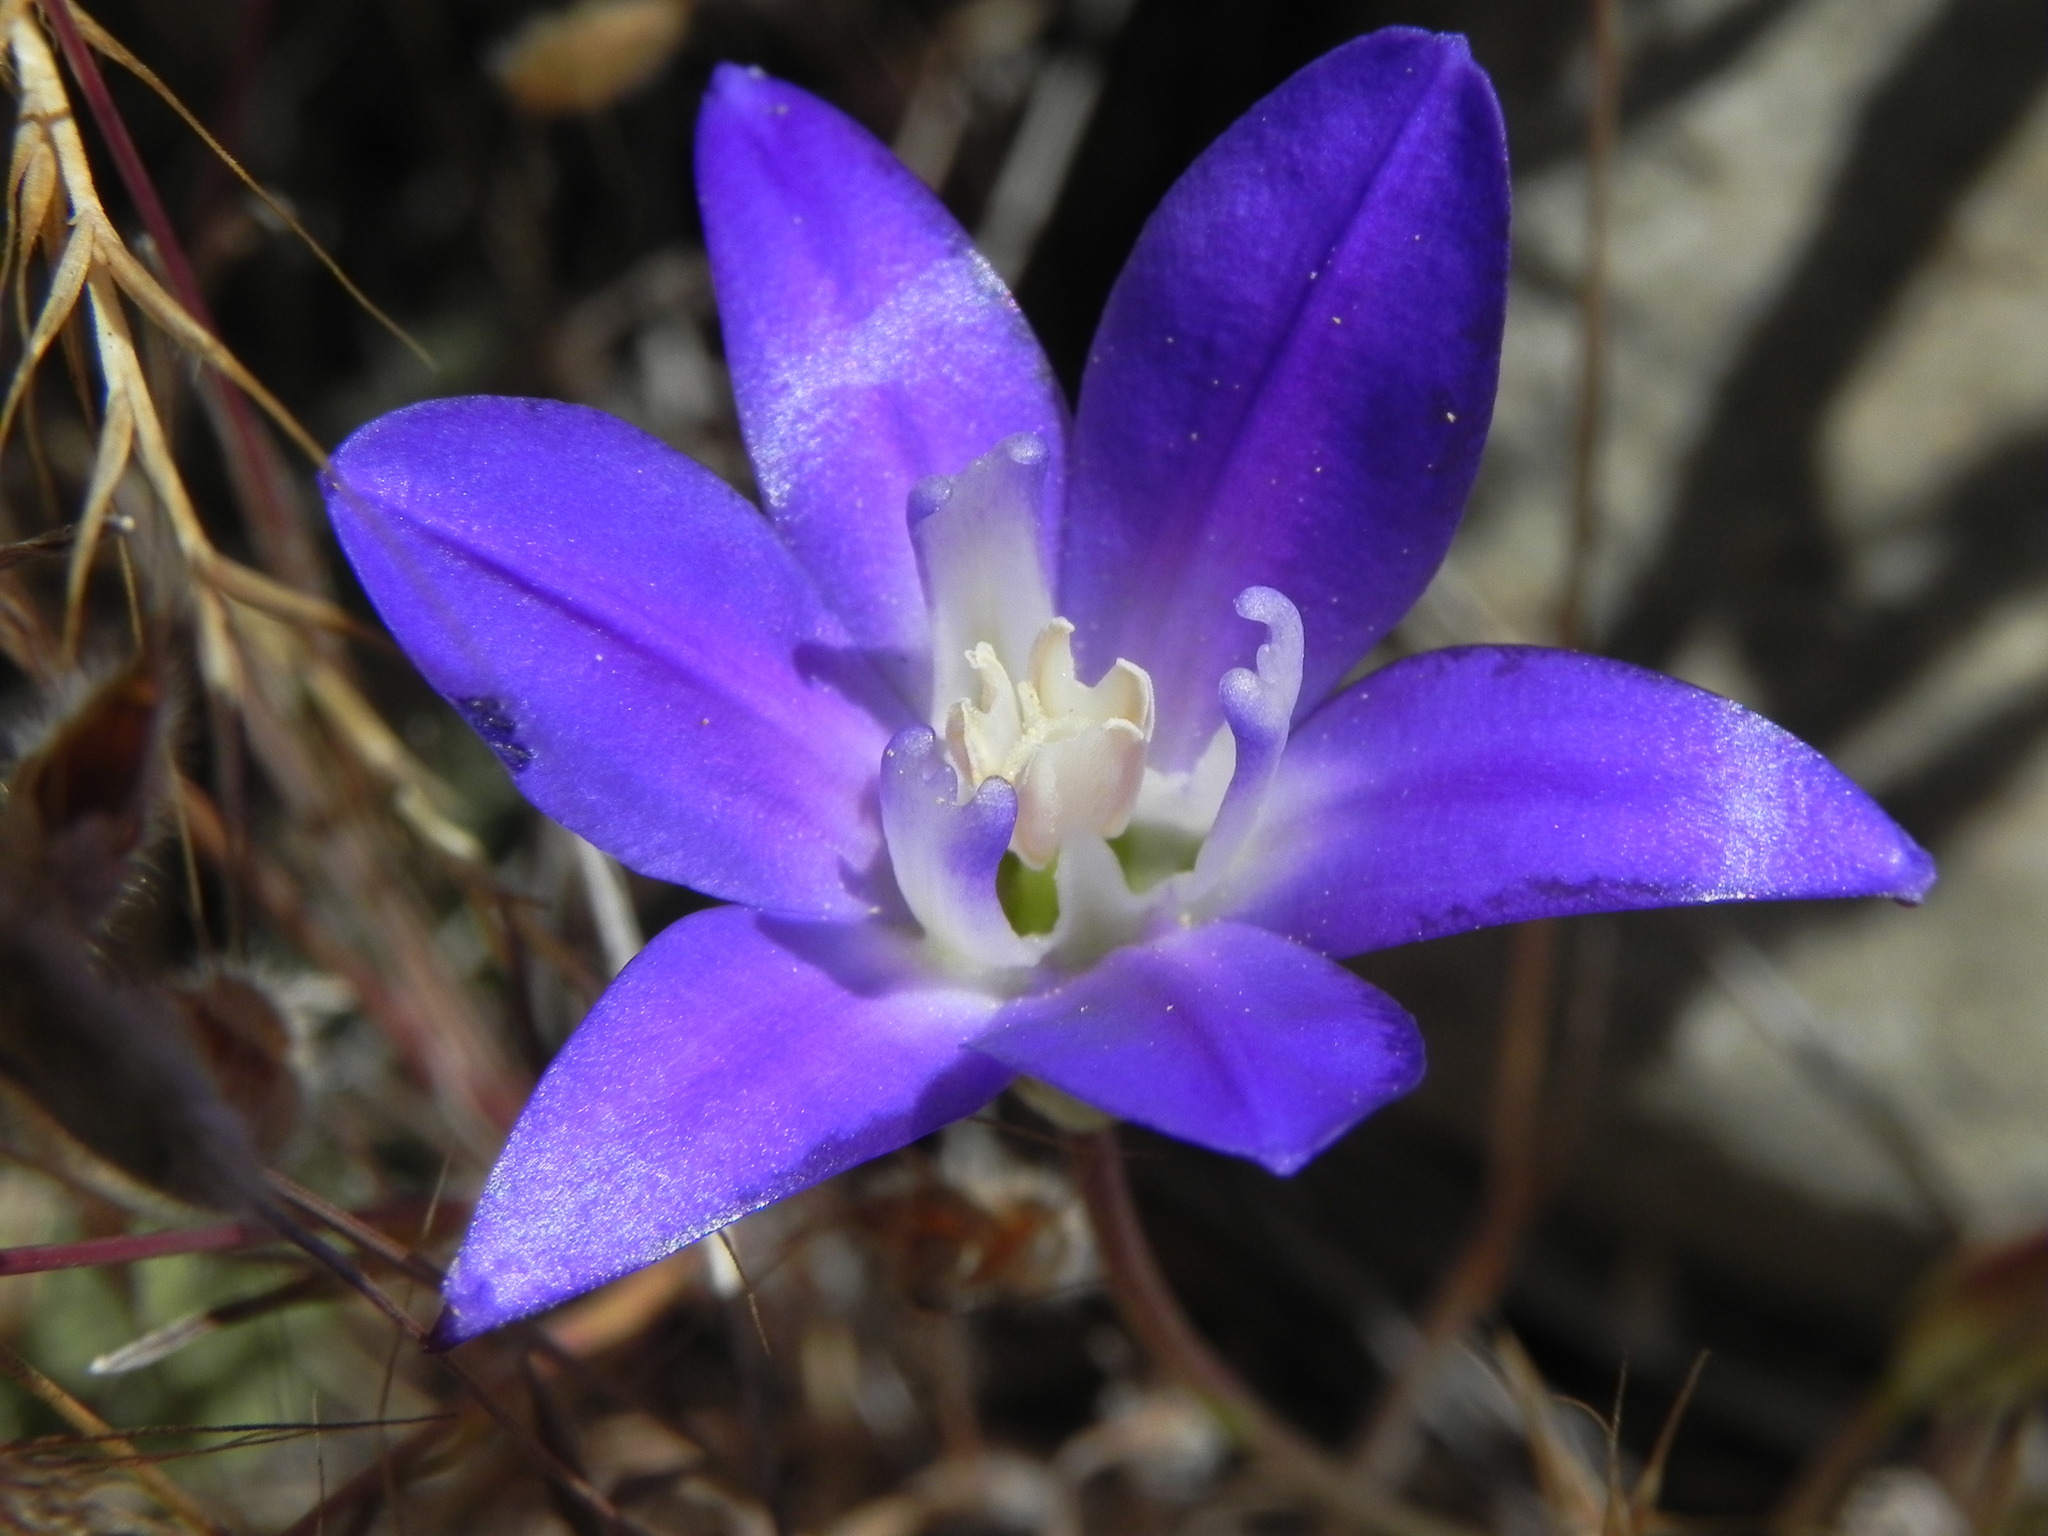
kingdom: Plantae
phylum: Tracheophyta
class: Liliopsida
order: Asparagales
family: Asparagaceae
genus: Brodiaea
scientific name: Brodiaea terrestris
